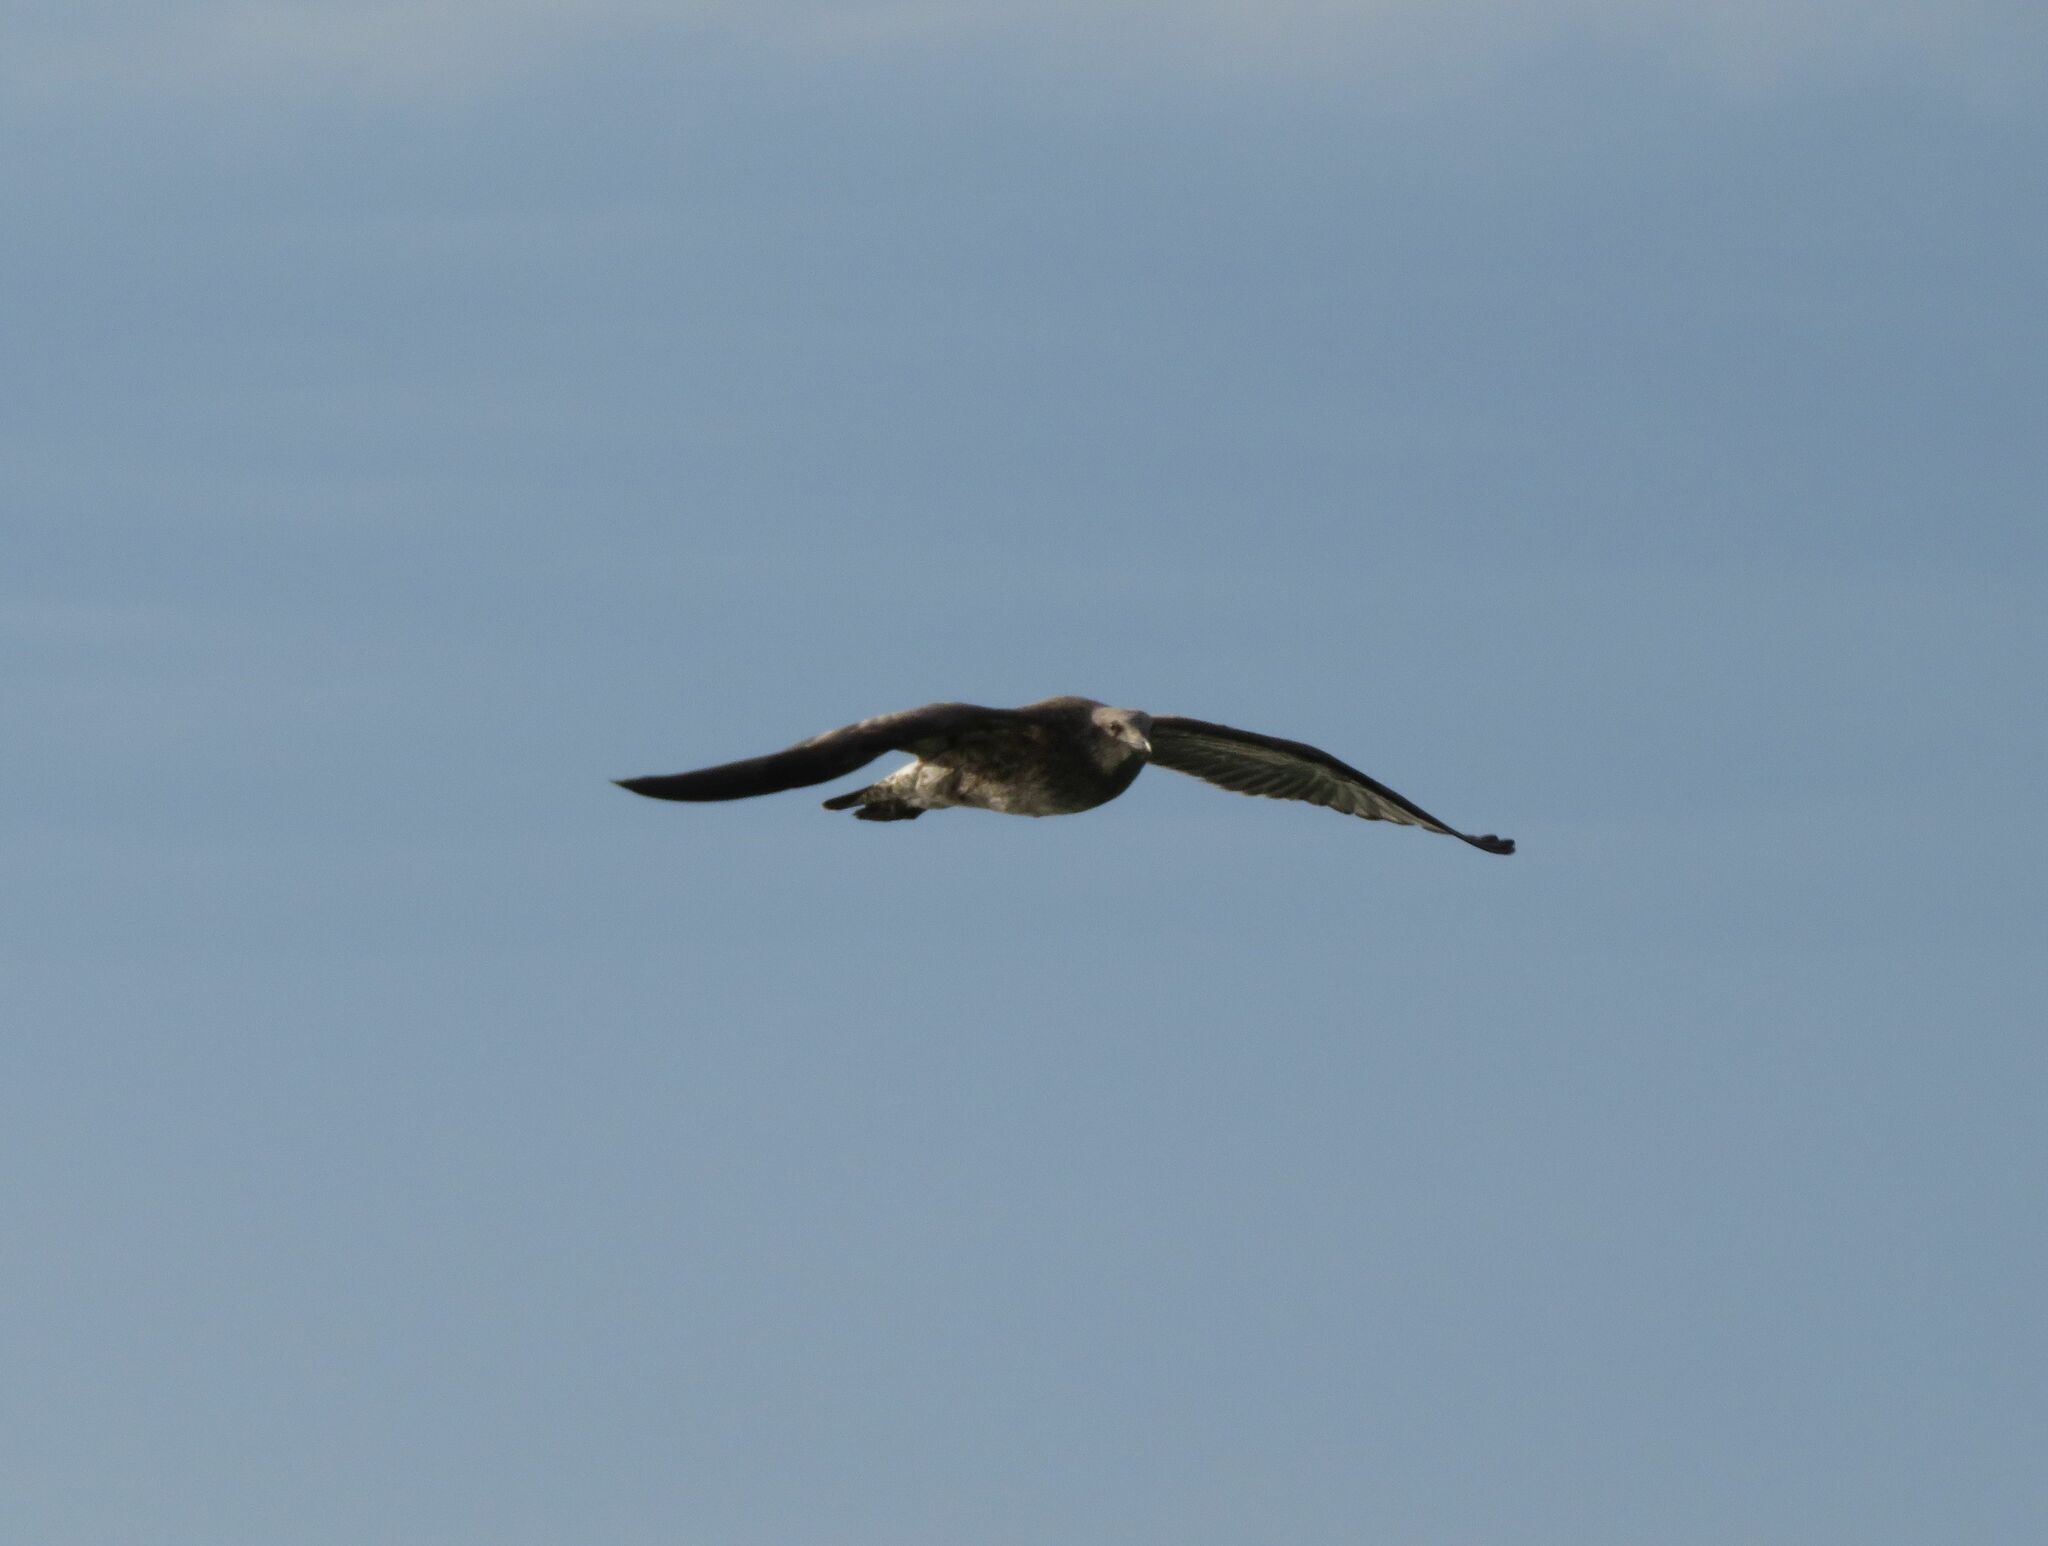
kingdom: Animalia
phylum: Chordata
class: Aves
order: Charadriiformes
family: Laridae
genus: Larus
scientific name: Larus dominicanus
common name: Kelp gull
